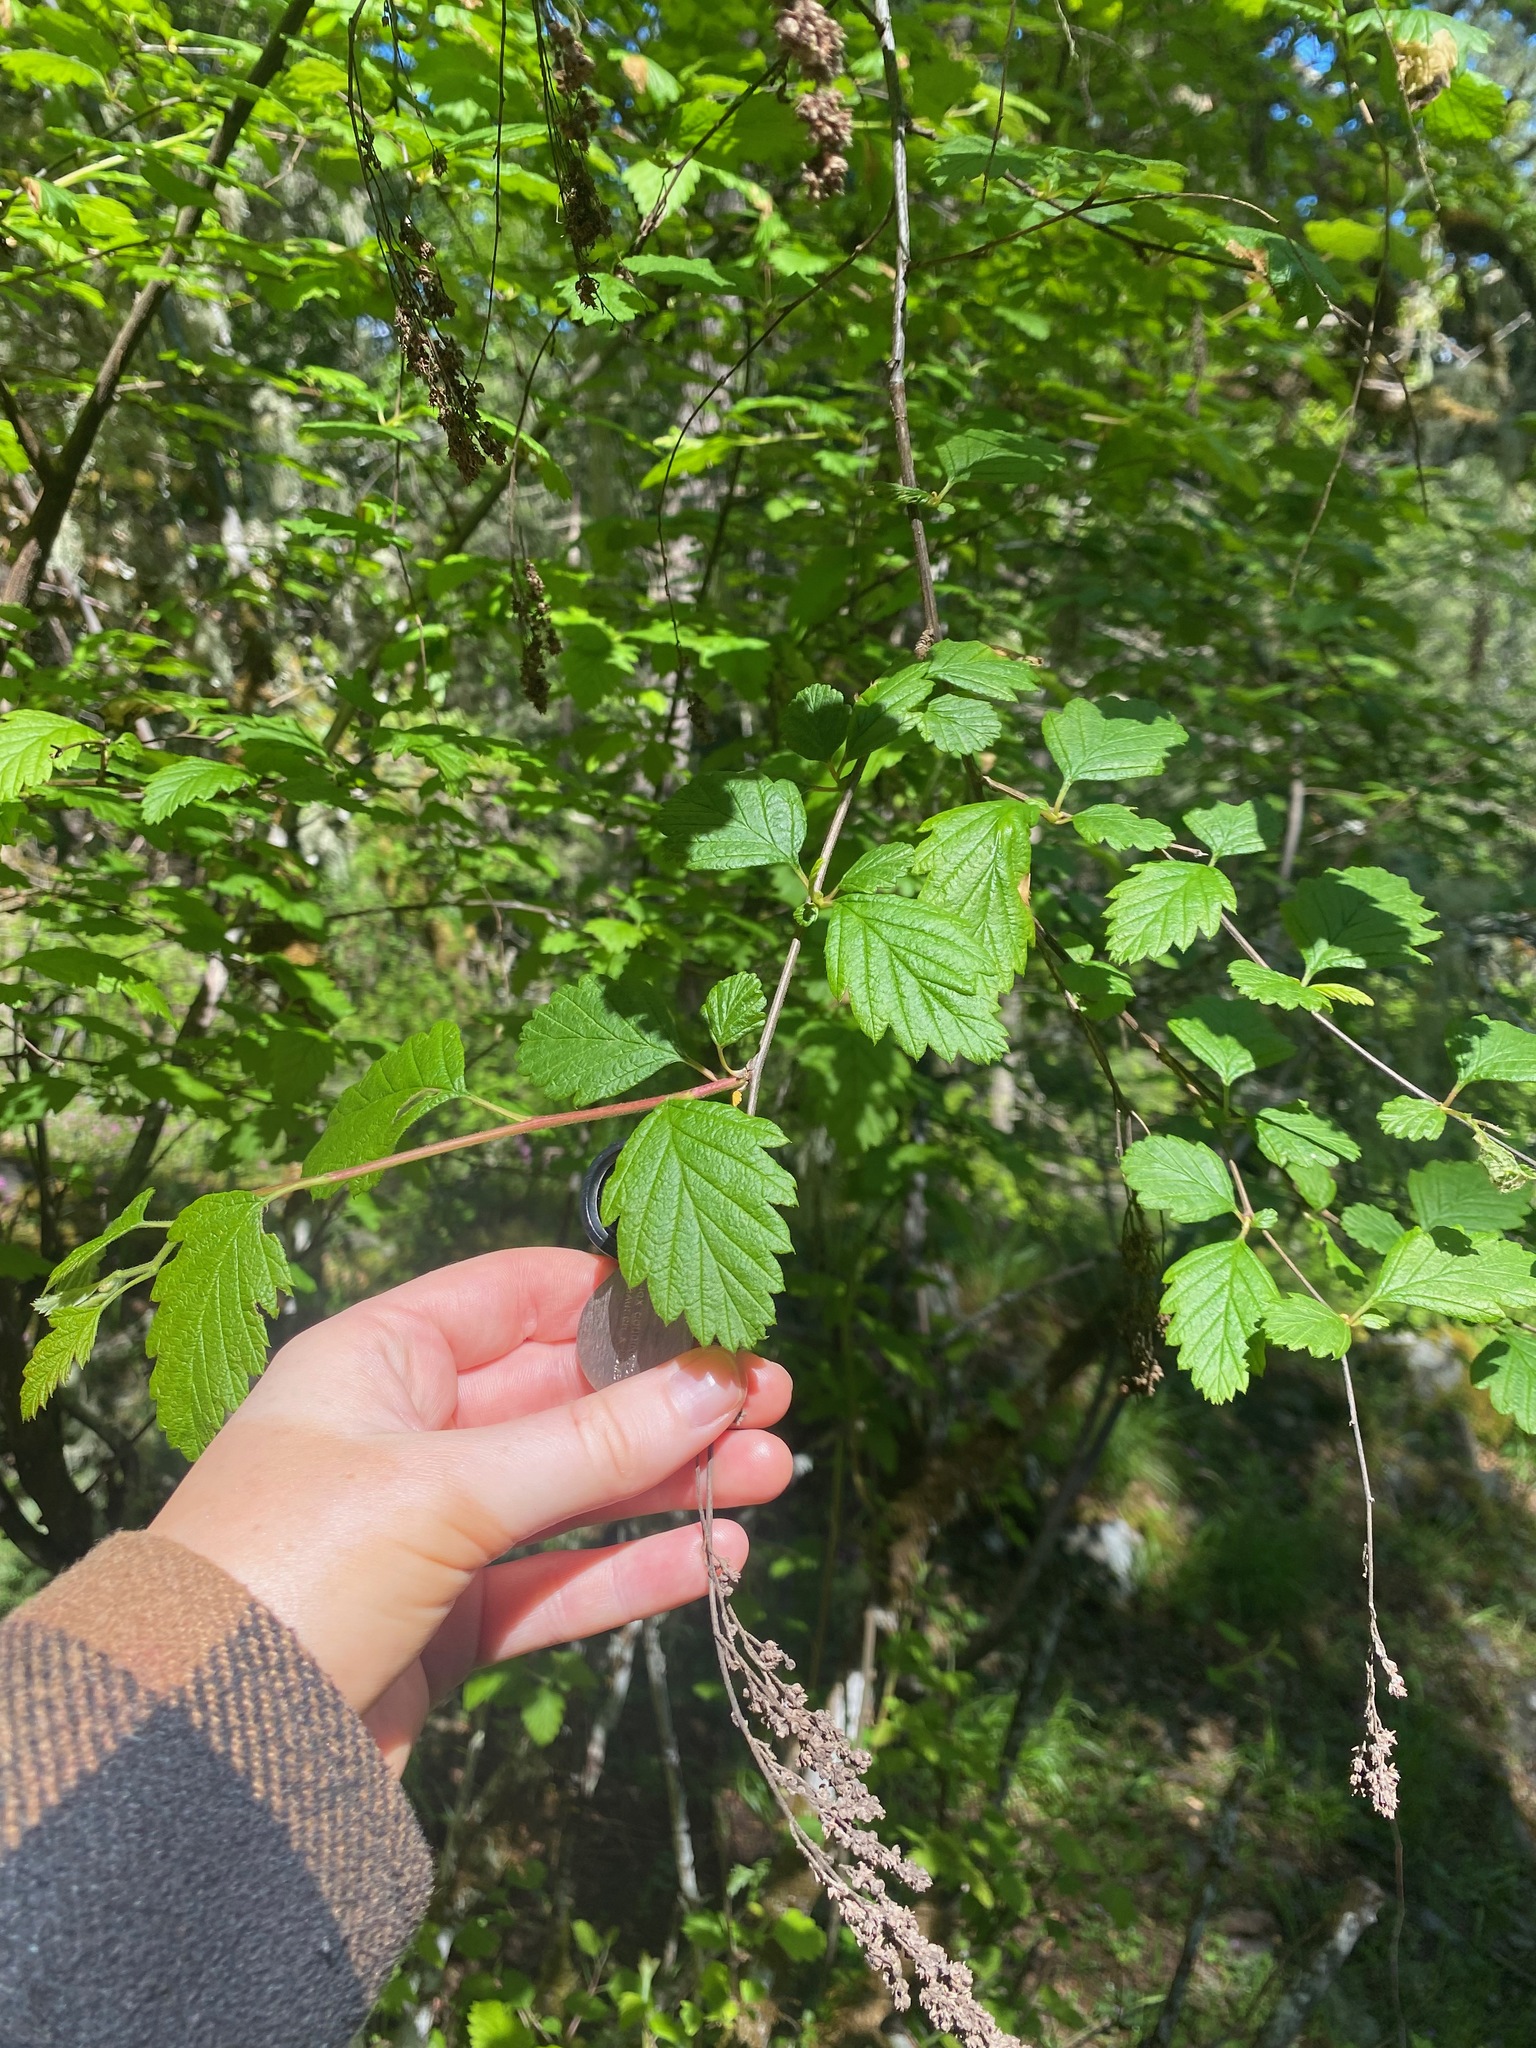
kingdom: Plantae
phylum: Tracheophyta
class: Magnoliopsida
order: Rosales
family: Rosaceae
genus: Holodiscus
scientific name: Holodiscus discolor
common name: Oceanspray
